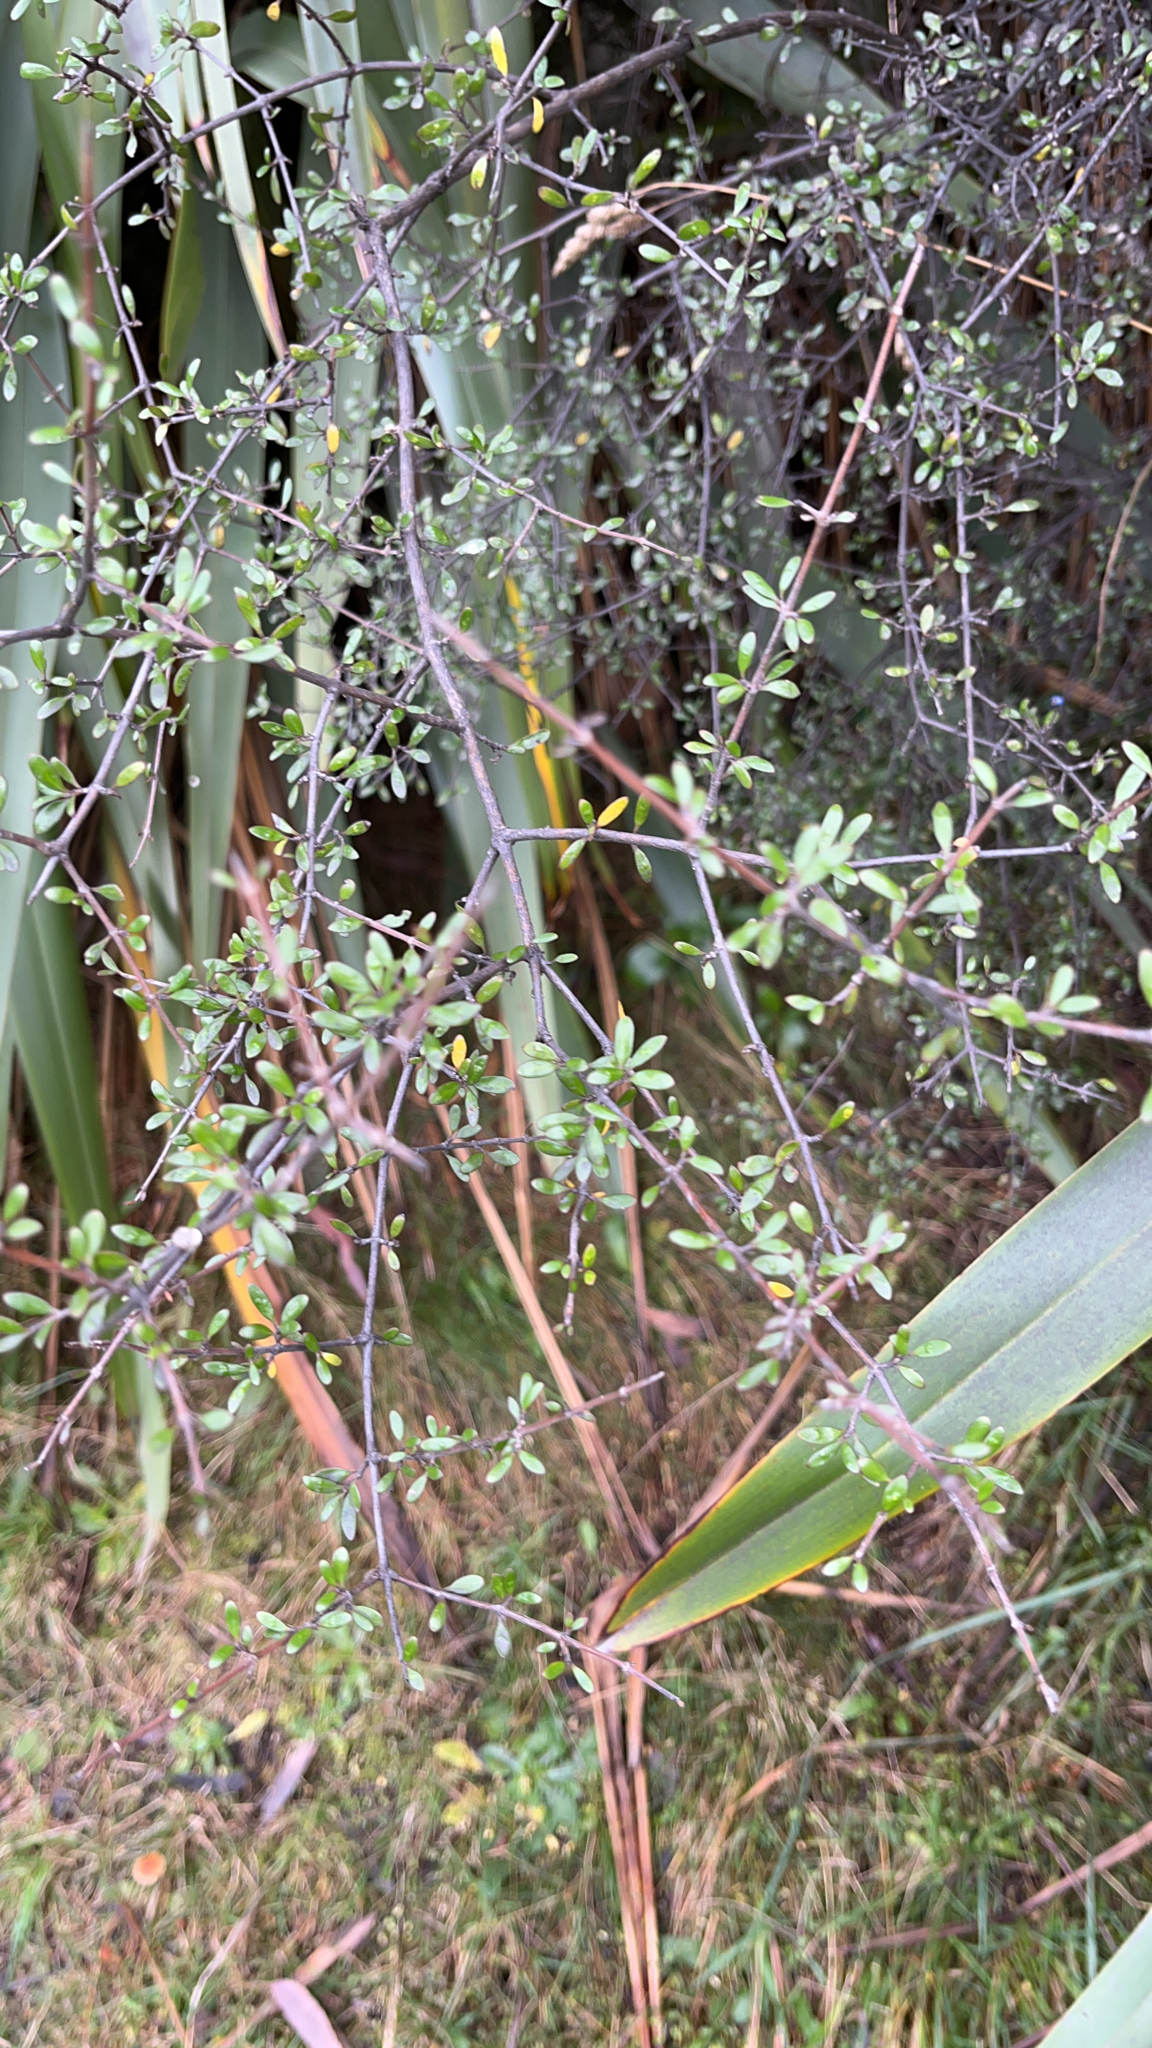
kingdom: Plantae
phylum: Tracheophyta
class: Magnoliopsida
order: Gentianales
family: Rubiaceae
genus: Coprosma
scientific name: Coprosma propinqua
